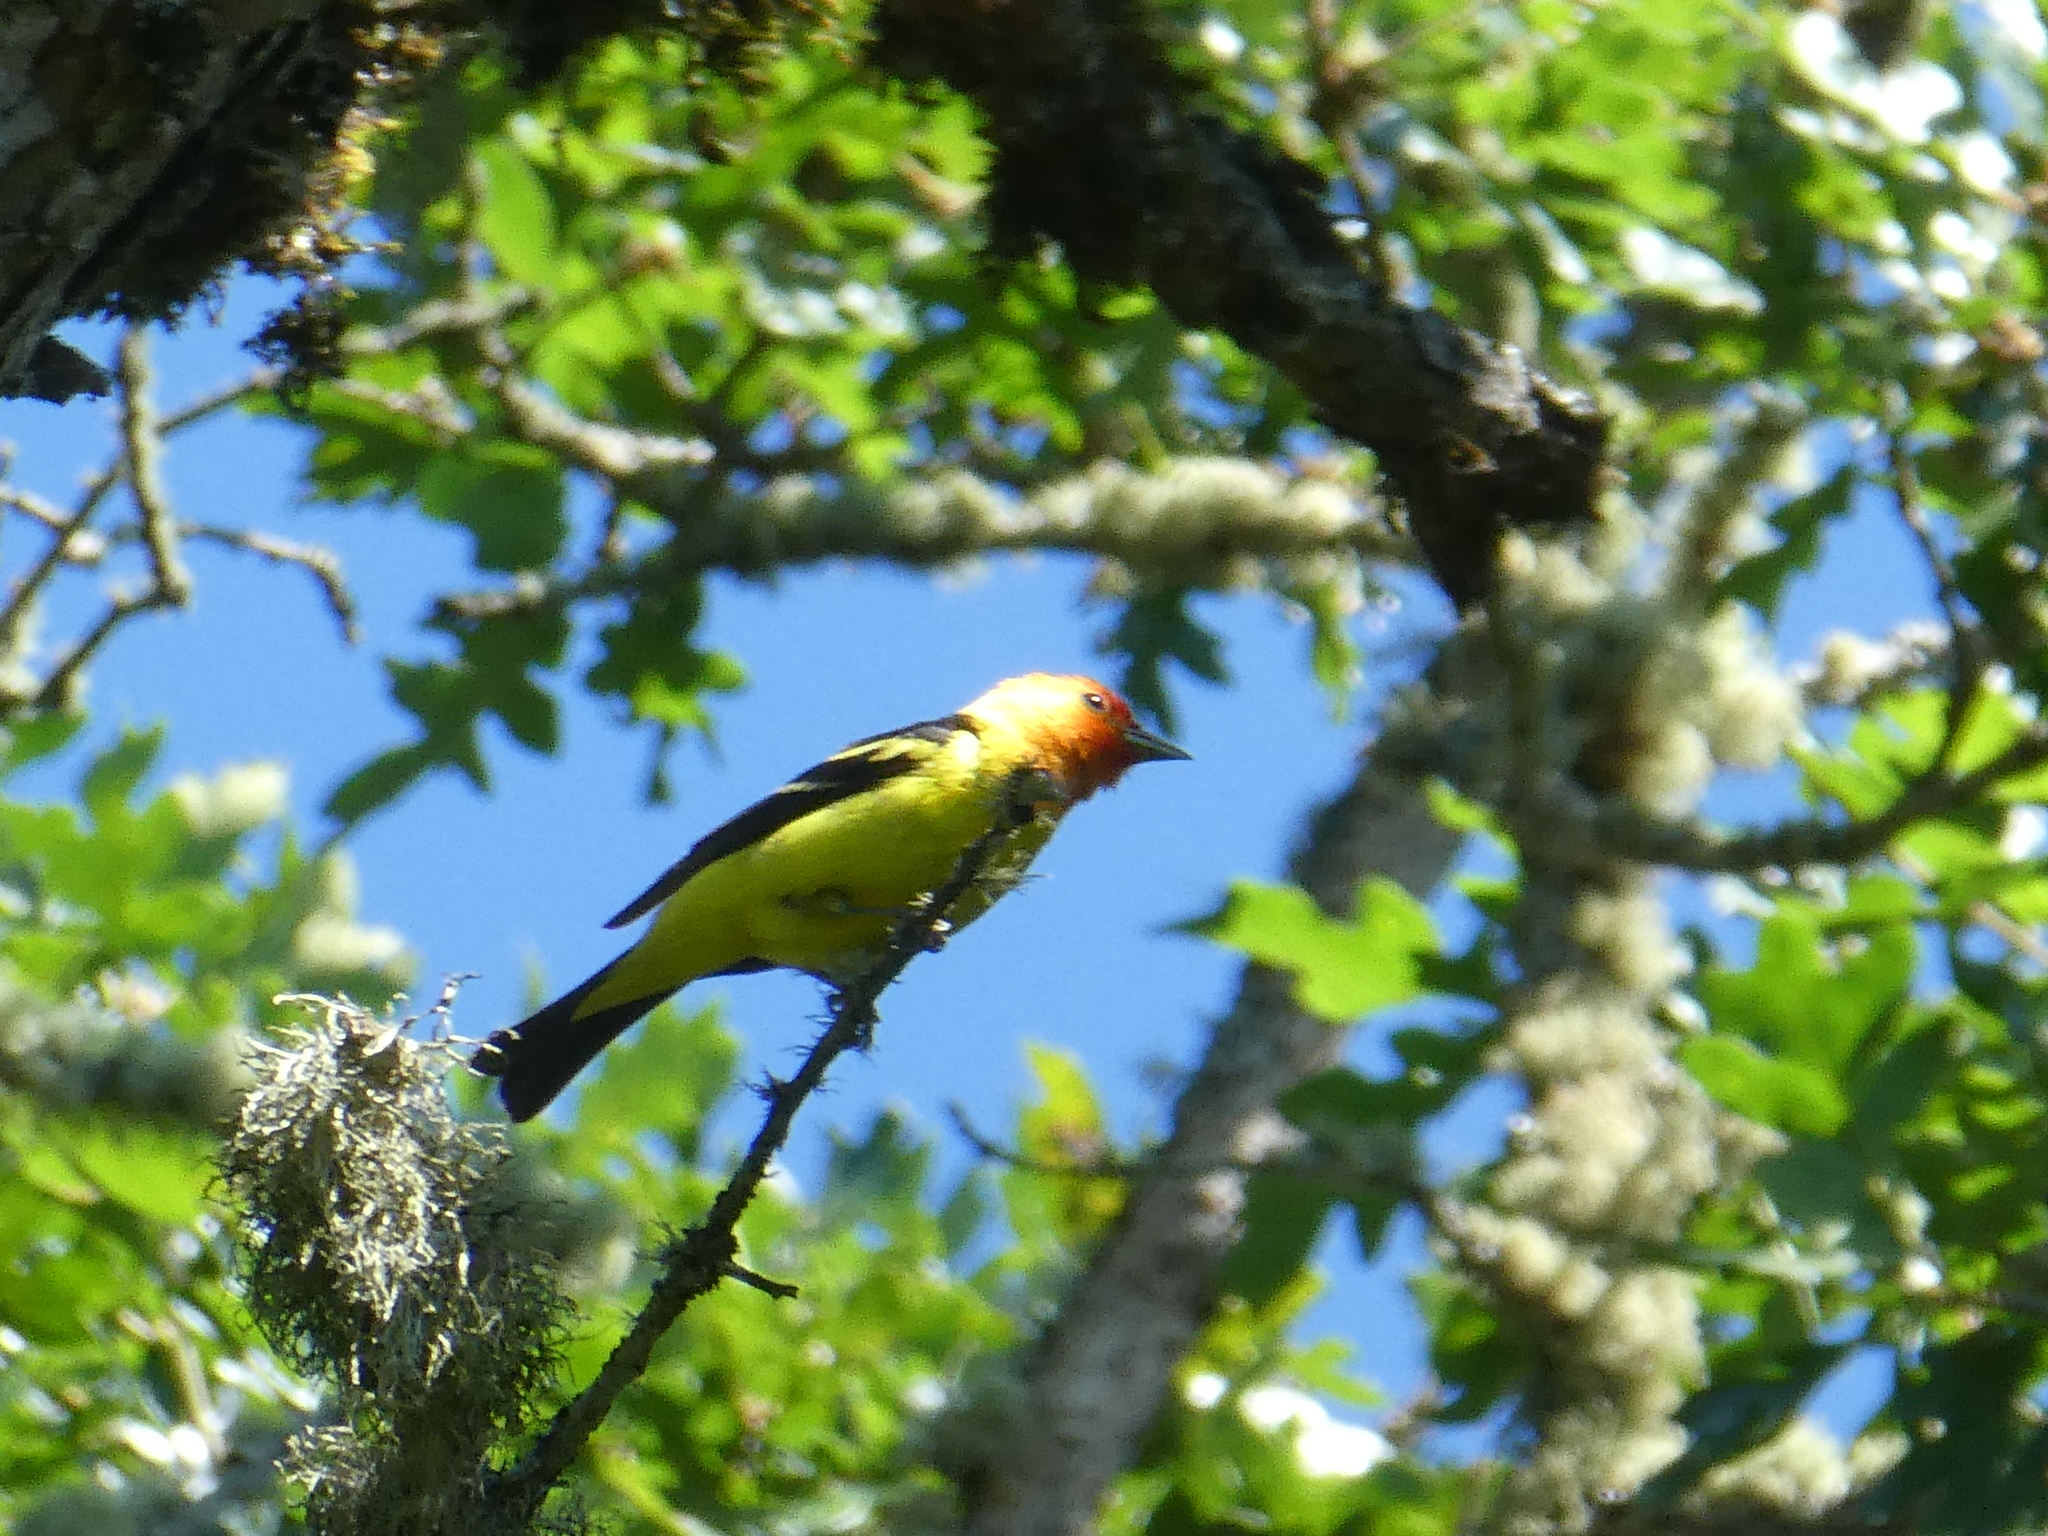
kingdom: Animalia
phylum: Chordata
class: Aves
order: Passeriformes
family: Cardinalidae
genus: Piranga
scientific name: Piranga ludoviciana
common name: Western tanager
